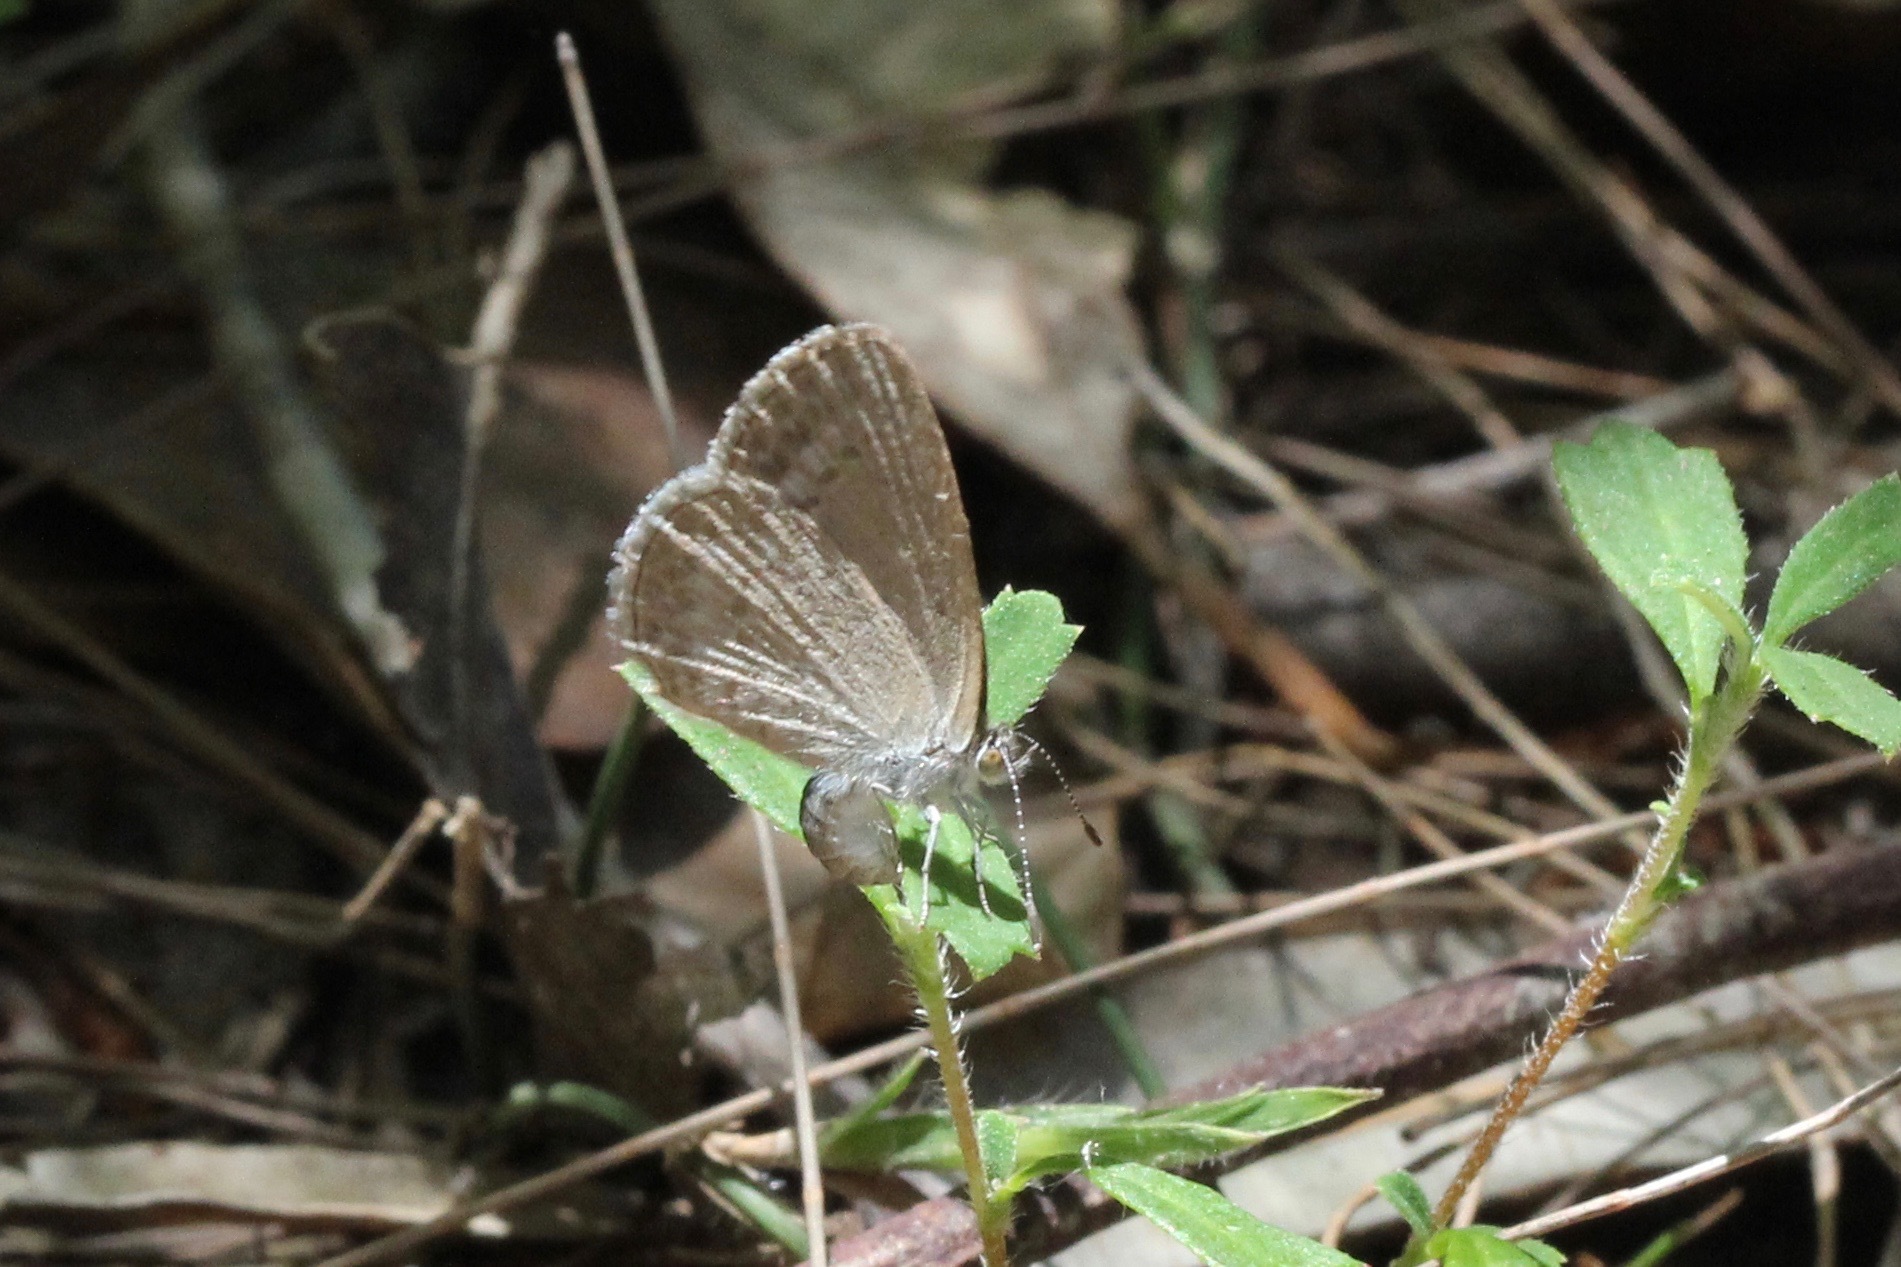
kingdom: Animalia
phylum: Arthropoda
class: Insecta
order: Lepidoptera
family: Lycaenidae
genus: Zizina
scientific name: Zizina labradus
